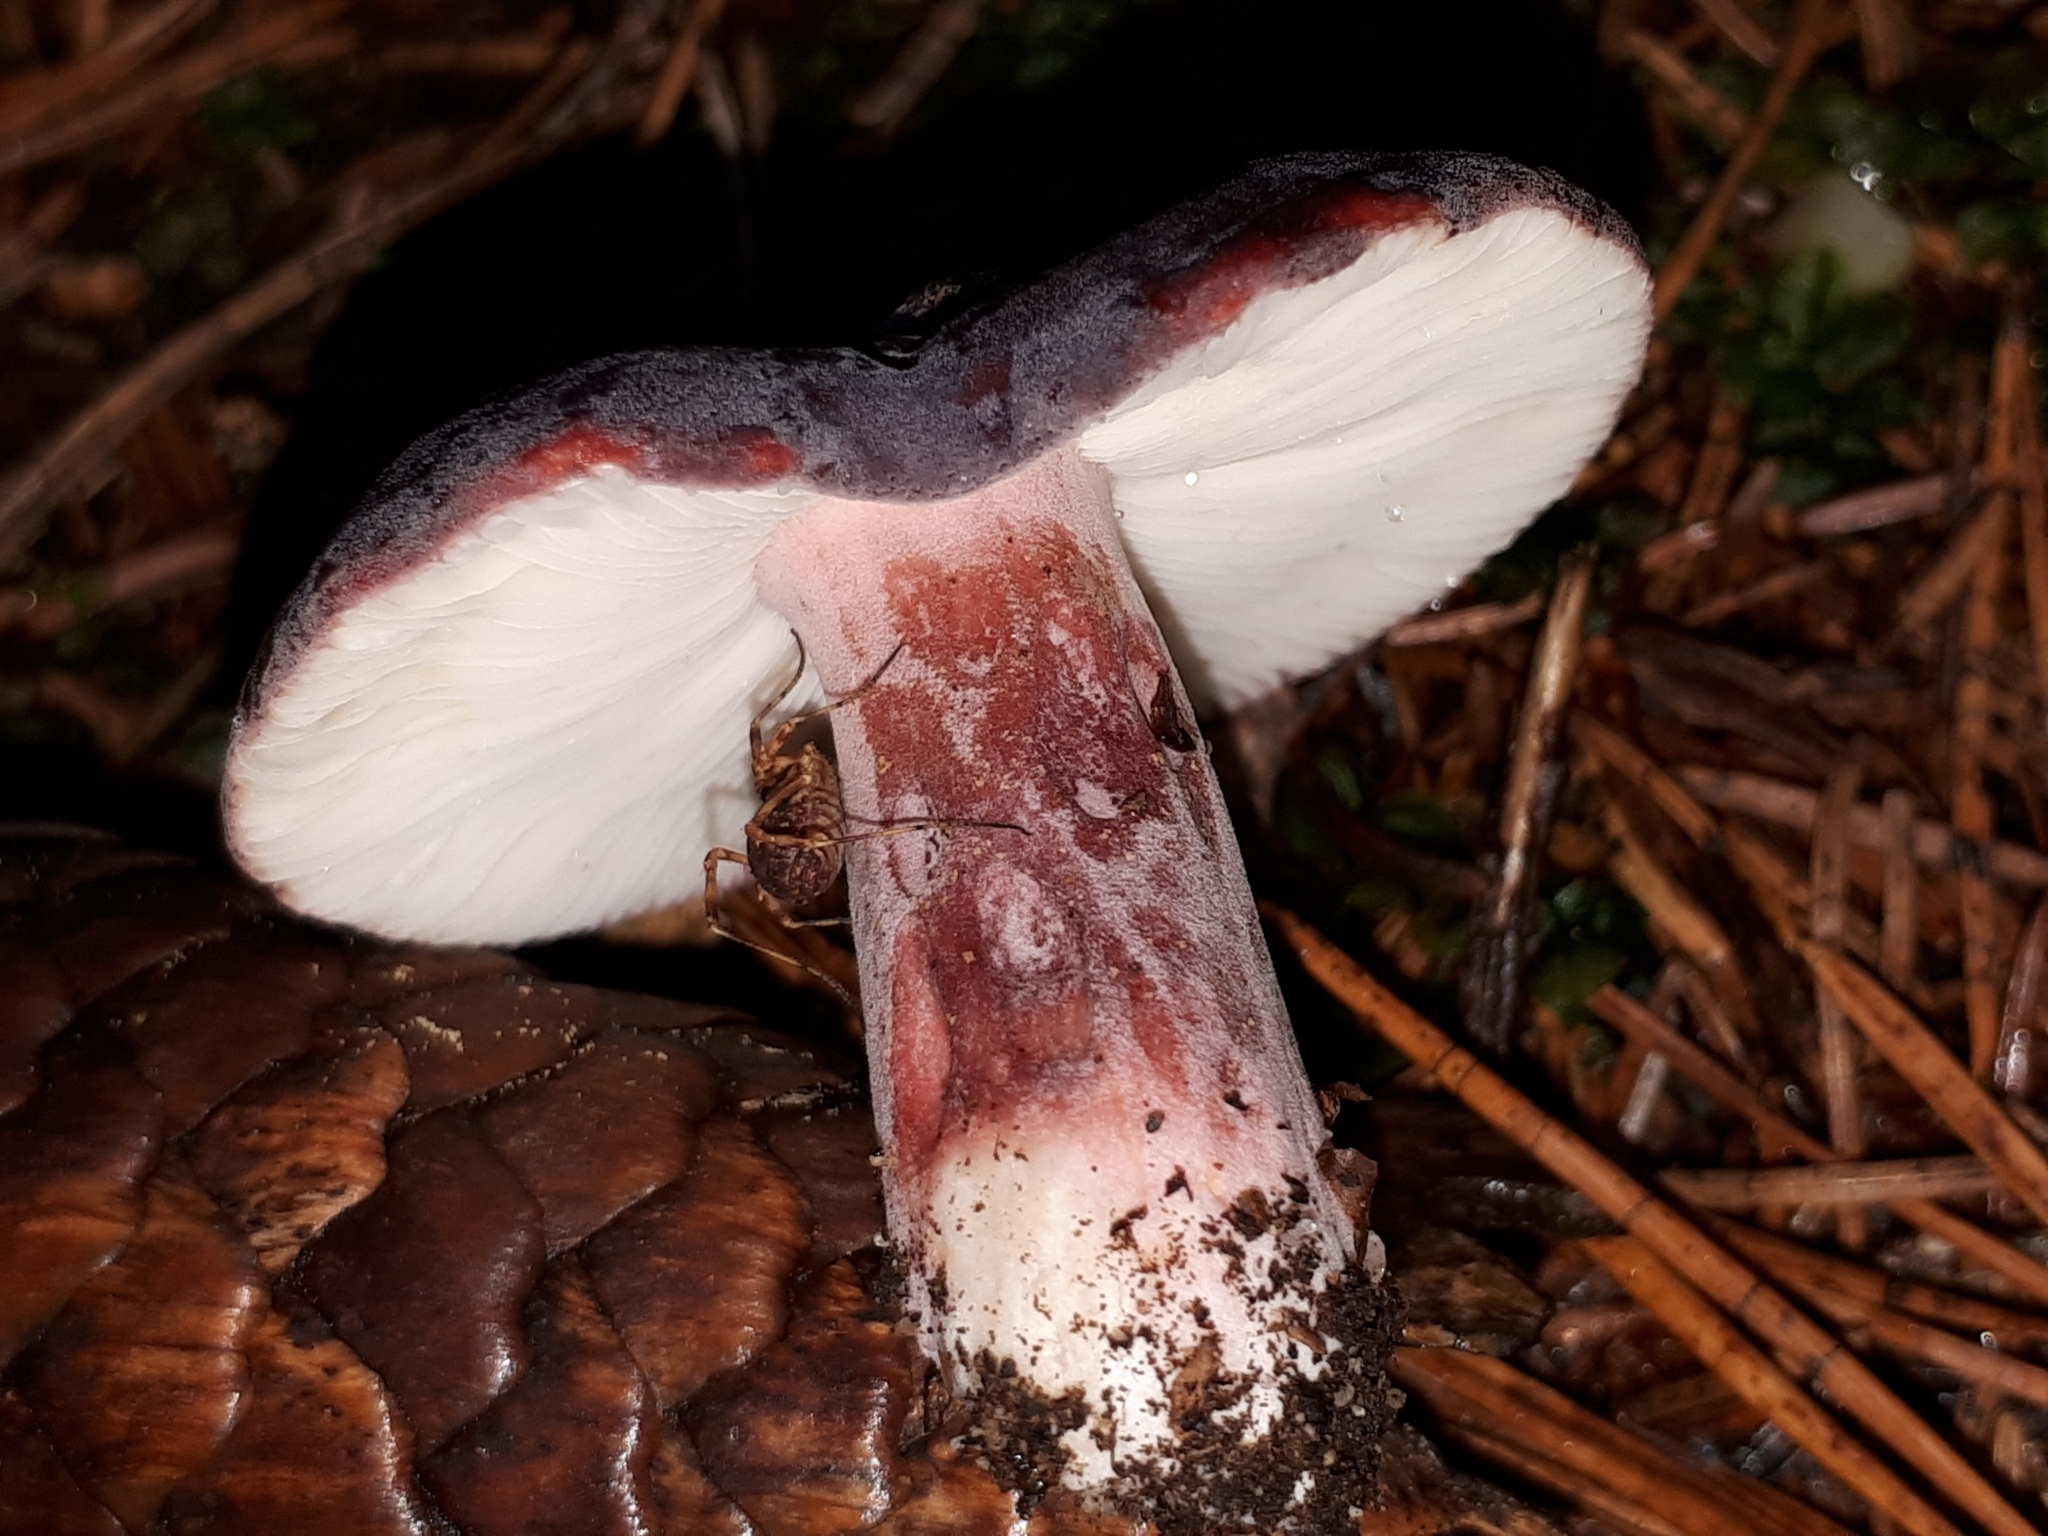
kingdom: Fungi
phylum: Basidiomycota
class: Agaricomycetes
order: Russulales
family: Russulaceae
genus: Russula
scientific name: Russula xerampelina
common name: Crab brittlegill
